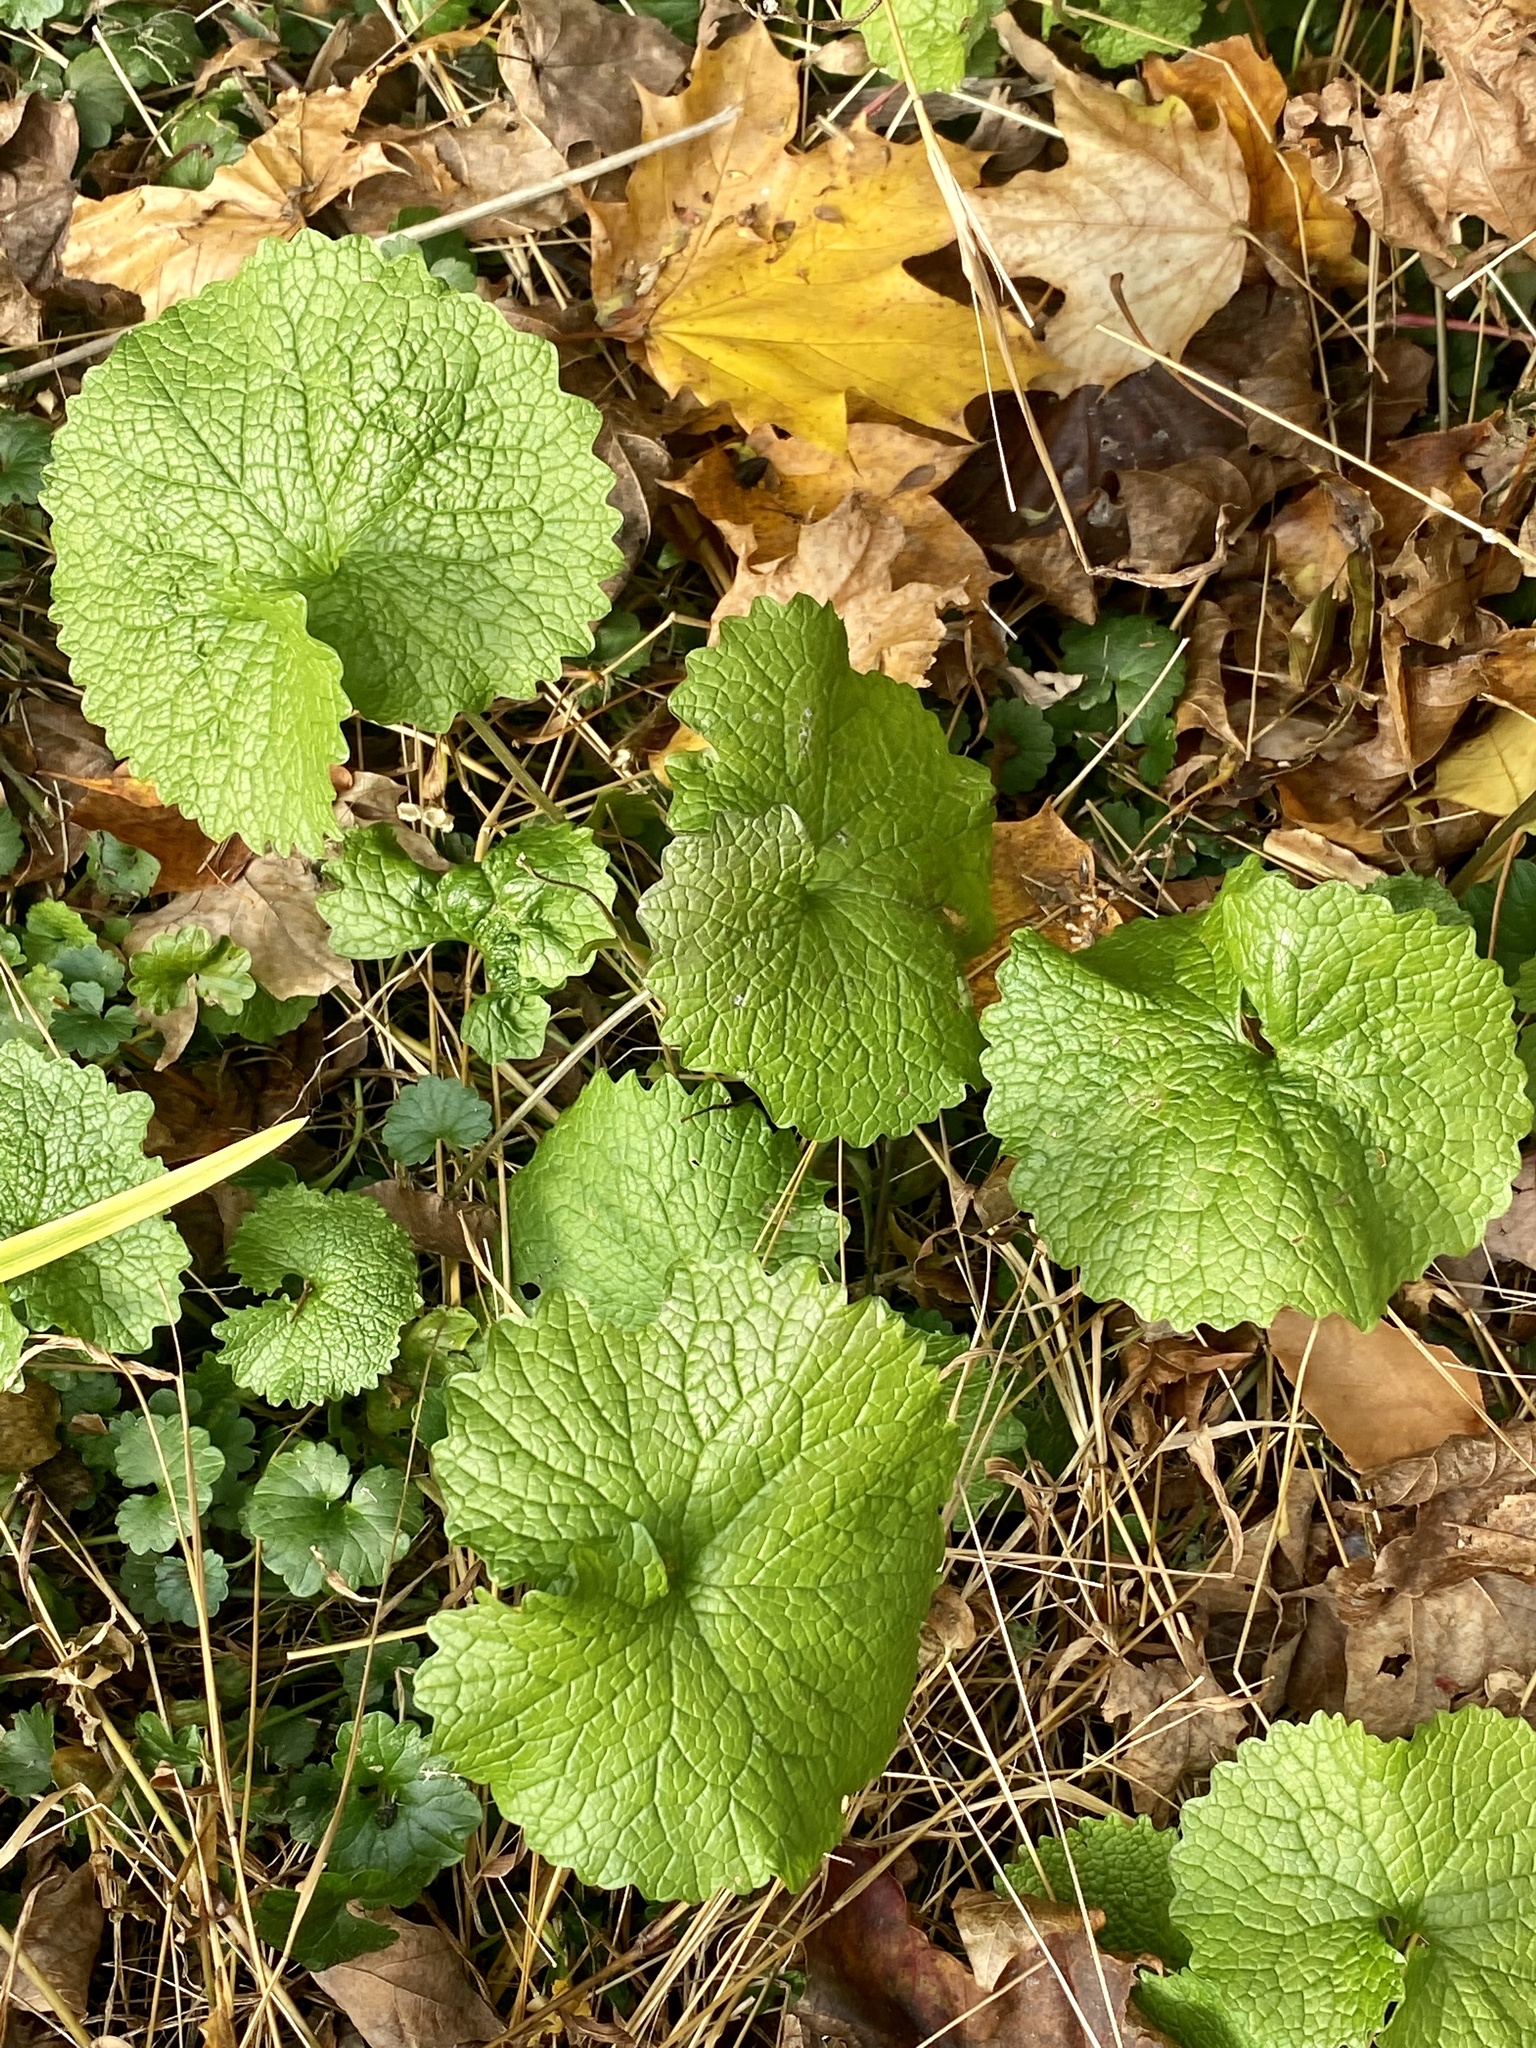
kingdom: Plantae
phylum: Tracheophyta
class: Magnoliopsida
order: Brassicales
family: Brassicaceae
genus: Alliaria
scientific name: Alliaria petiolata
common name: Garlic mustard
